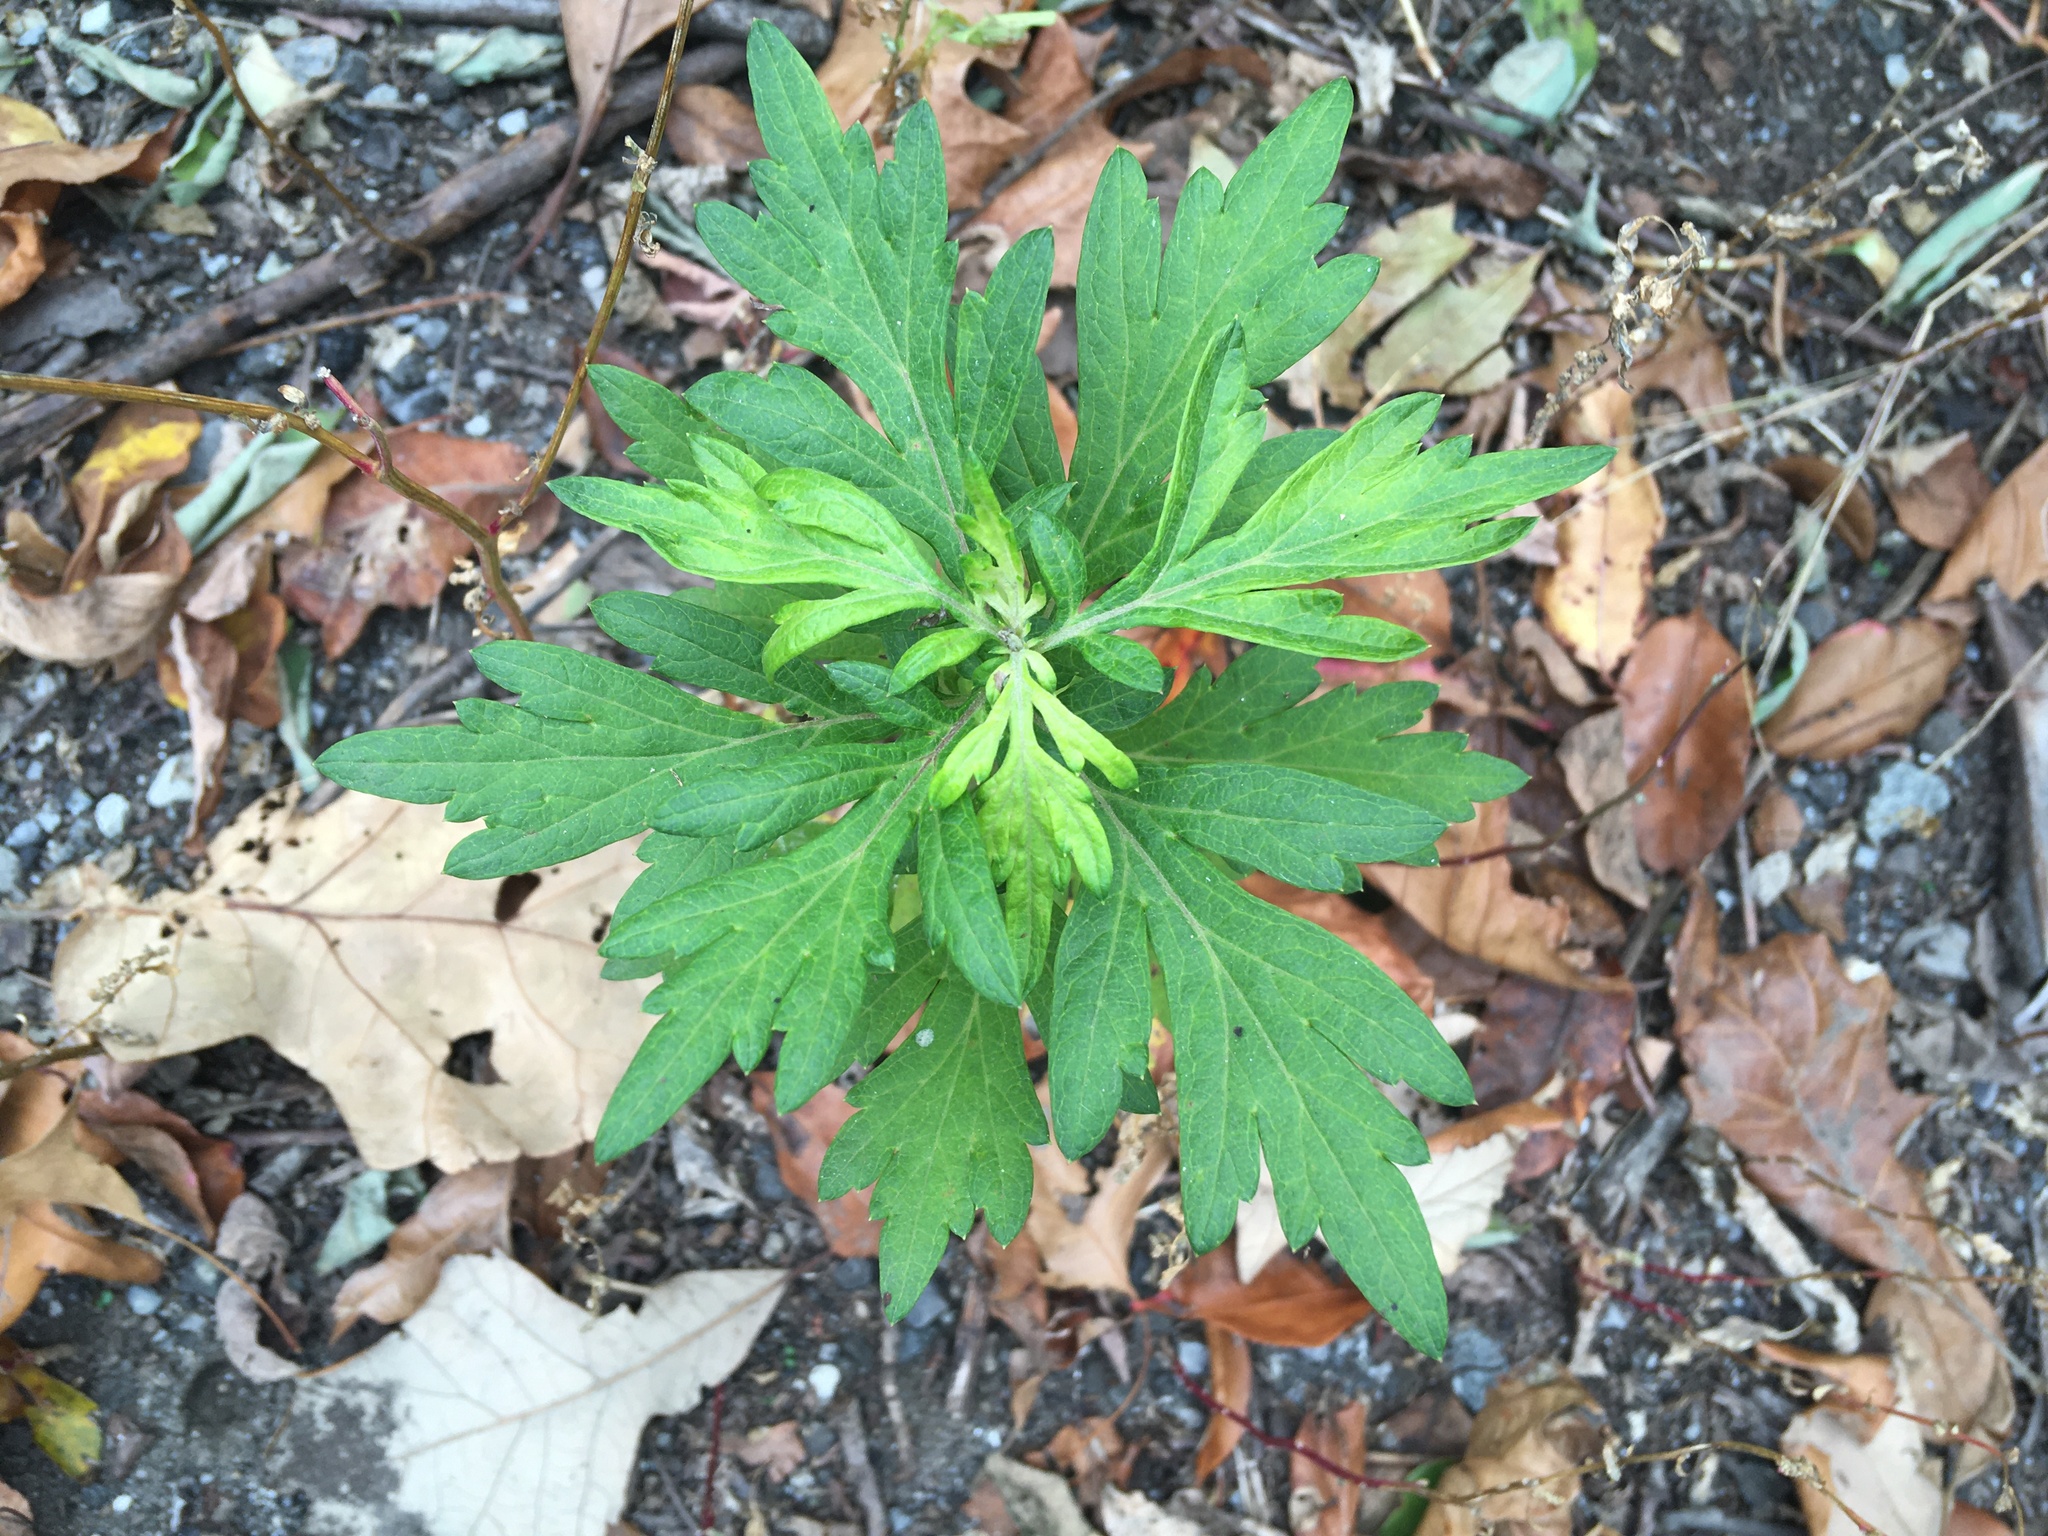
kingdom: Plantae
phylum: Tracheophyta
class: Magnoliopsida
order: Asterales
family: Asteraceae
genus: Artemisia
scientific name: Artemisia vulgaris
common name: Mugwort
